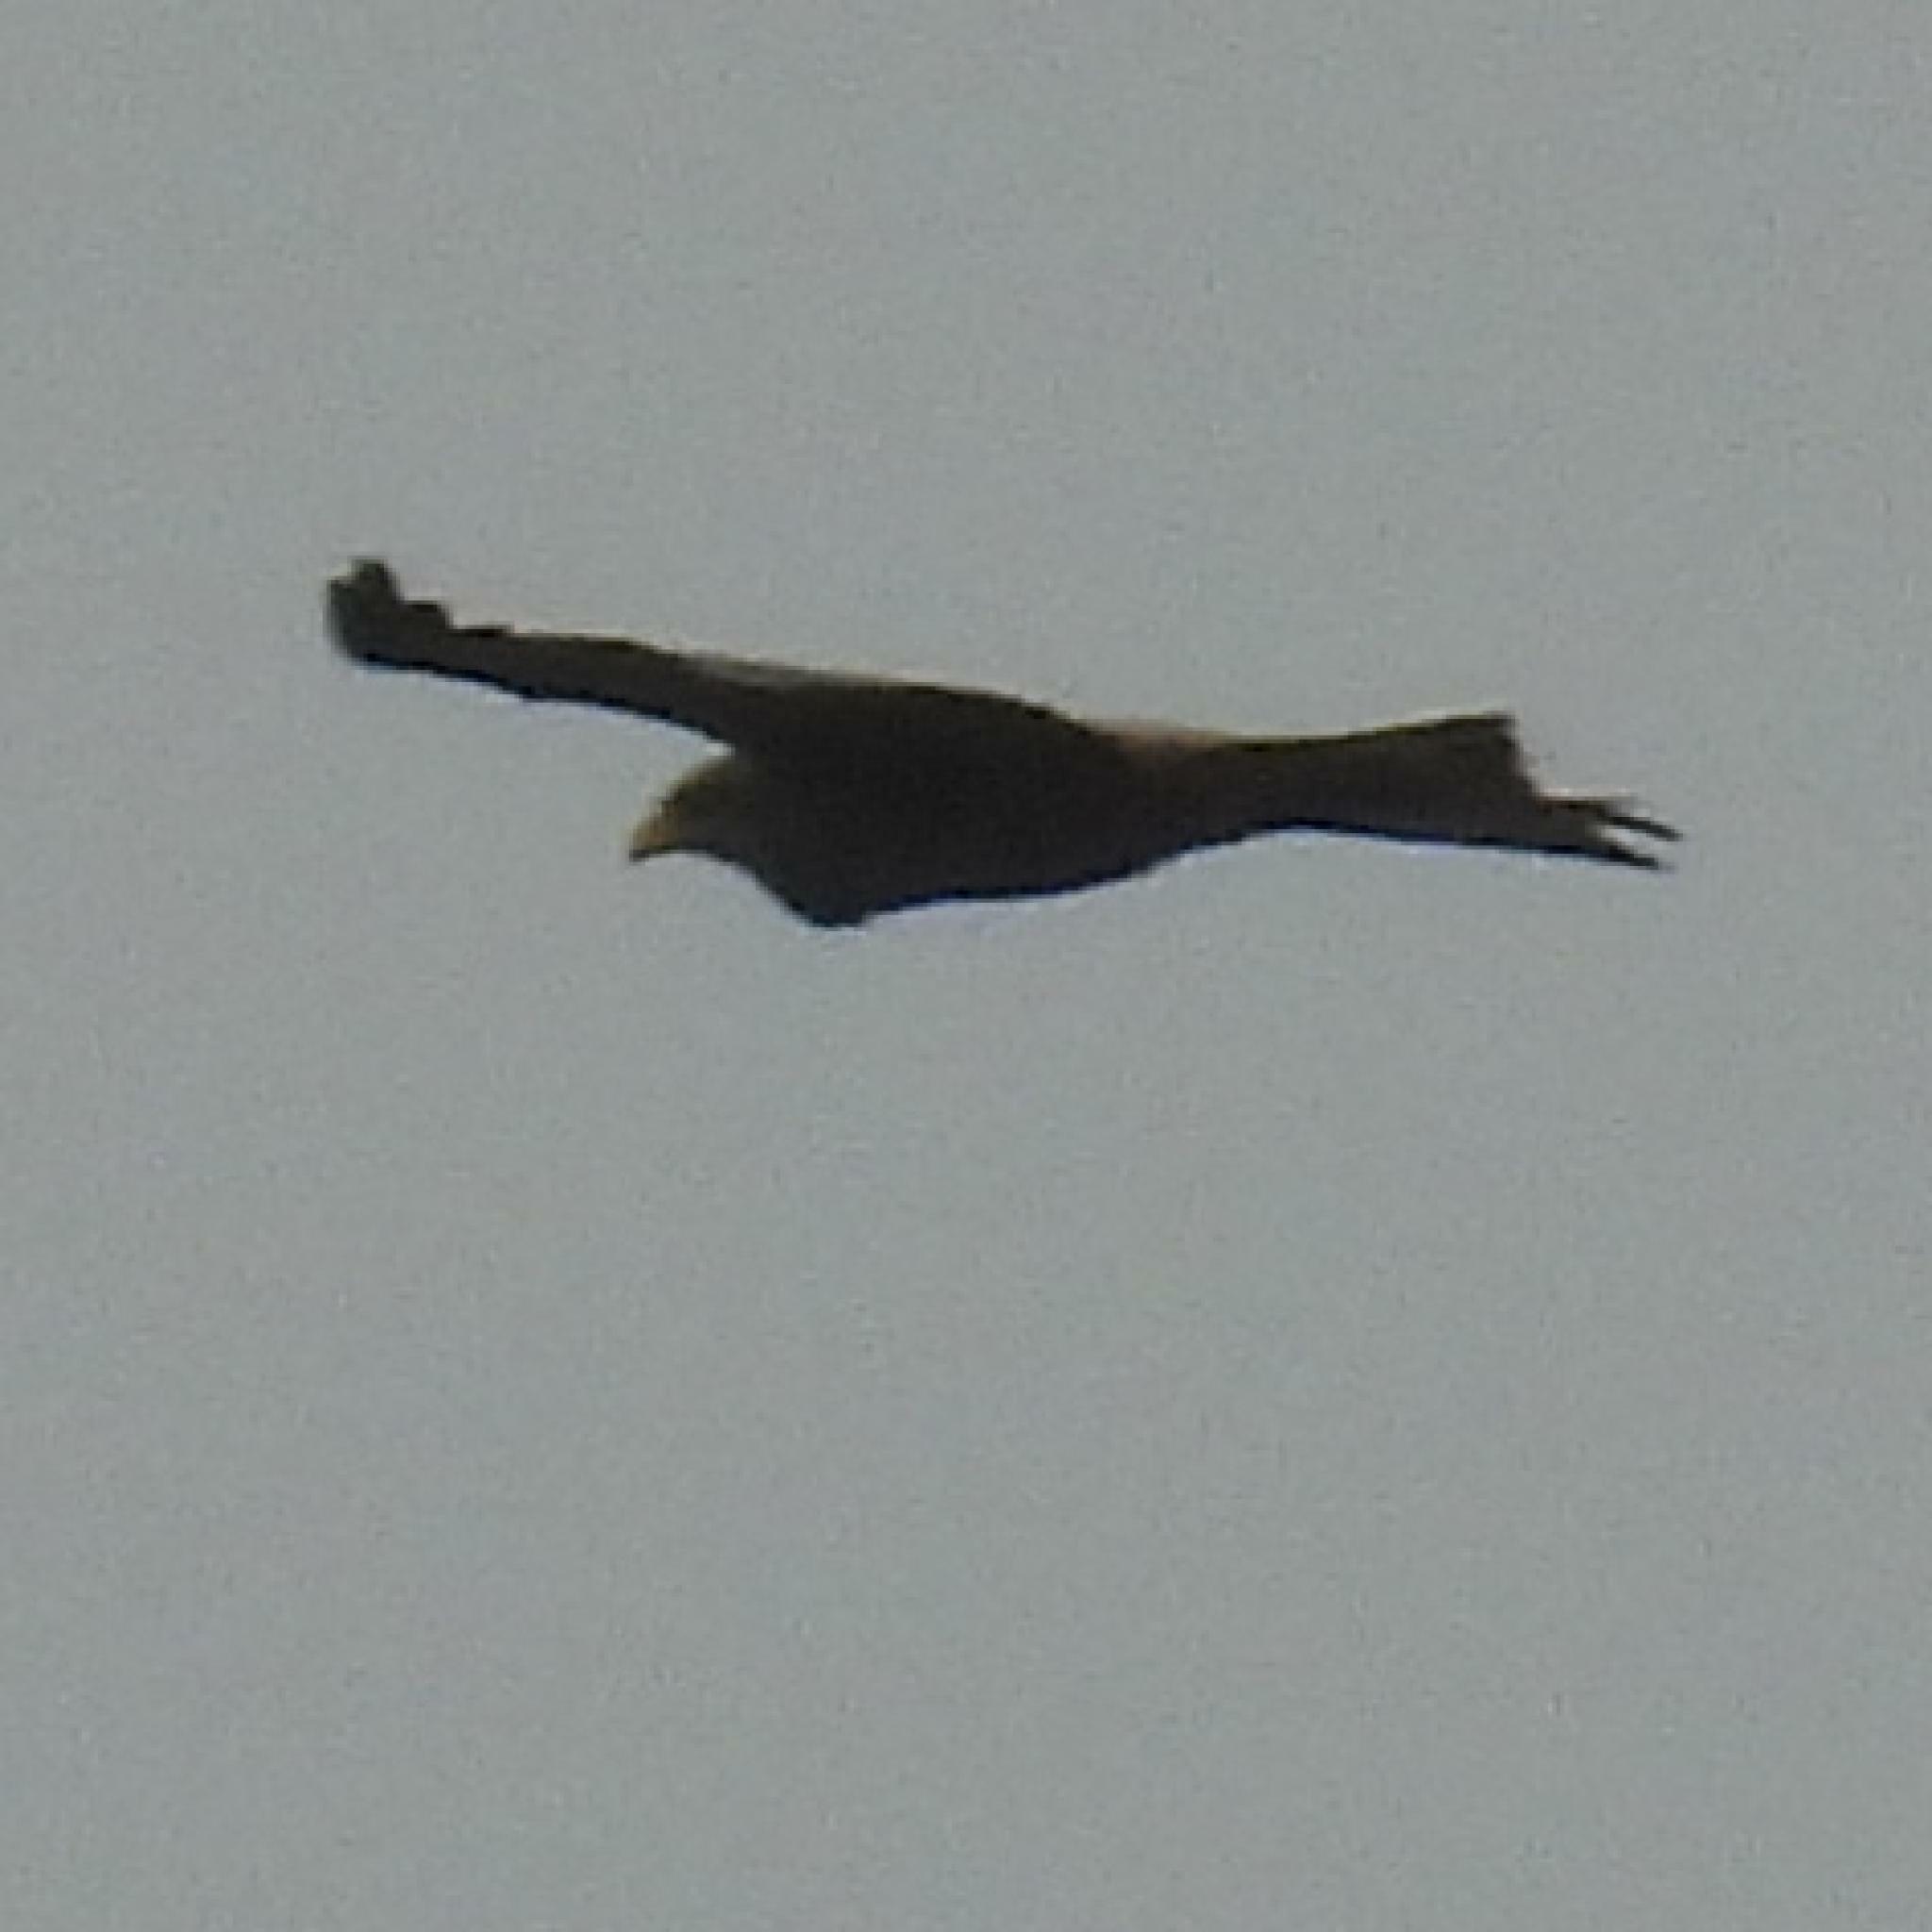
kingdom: Animalia
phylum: Chordata
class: Aves
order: Accipitriformes
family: Accipitridae
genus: Milvus
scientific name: Milvus migrans
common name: Black kite
